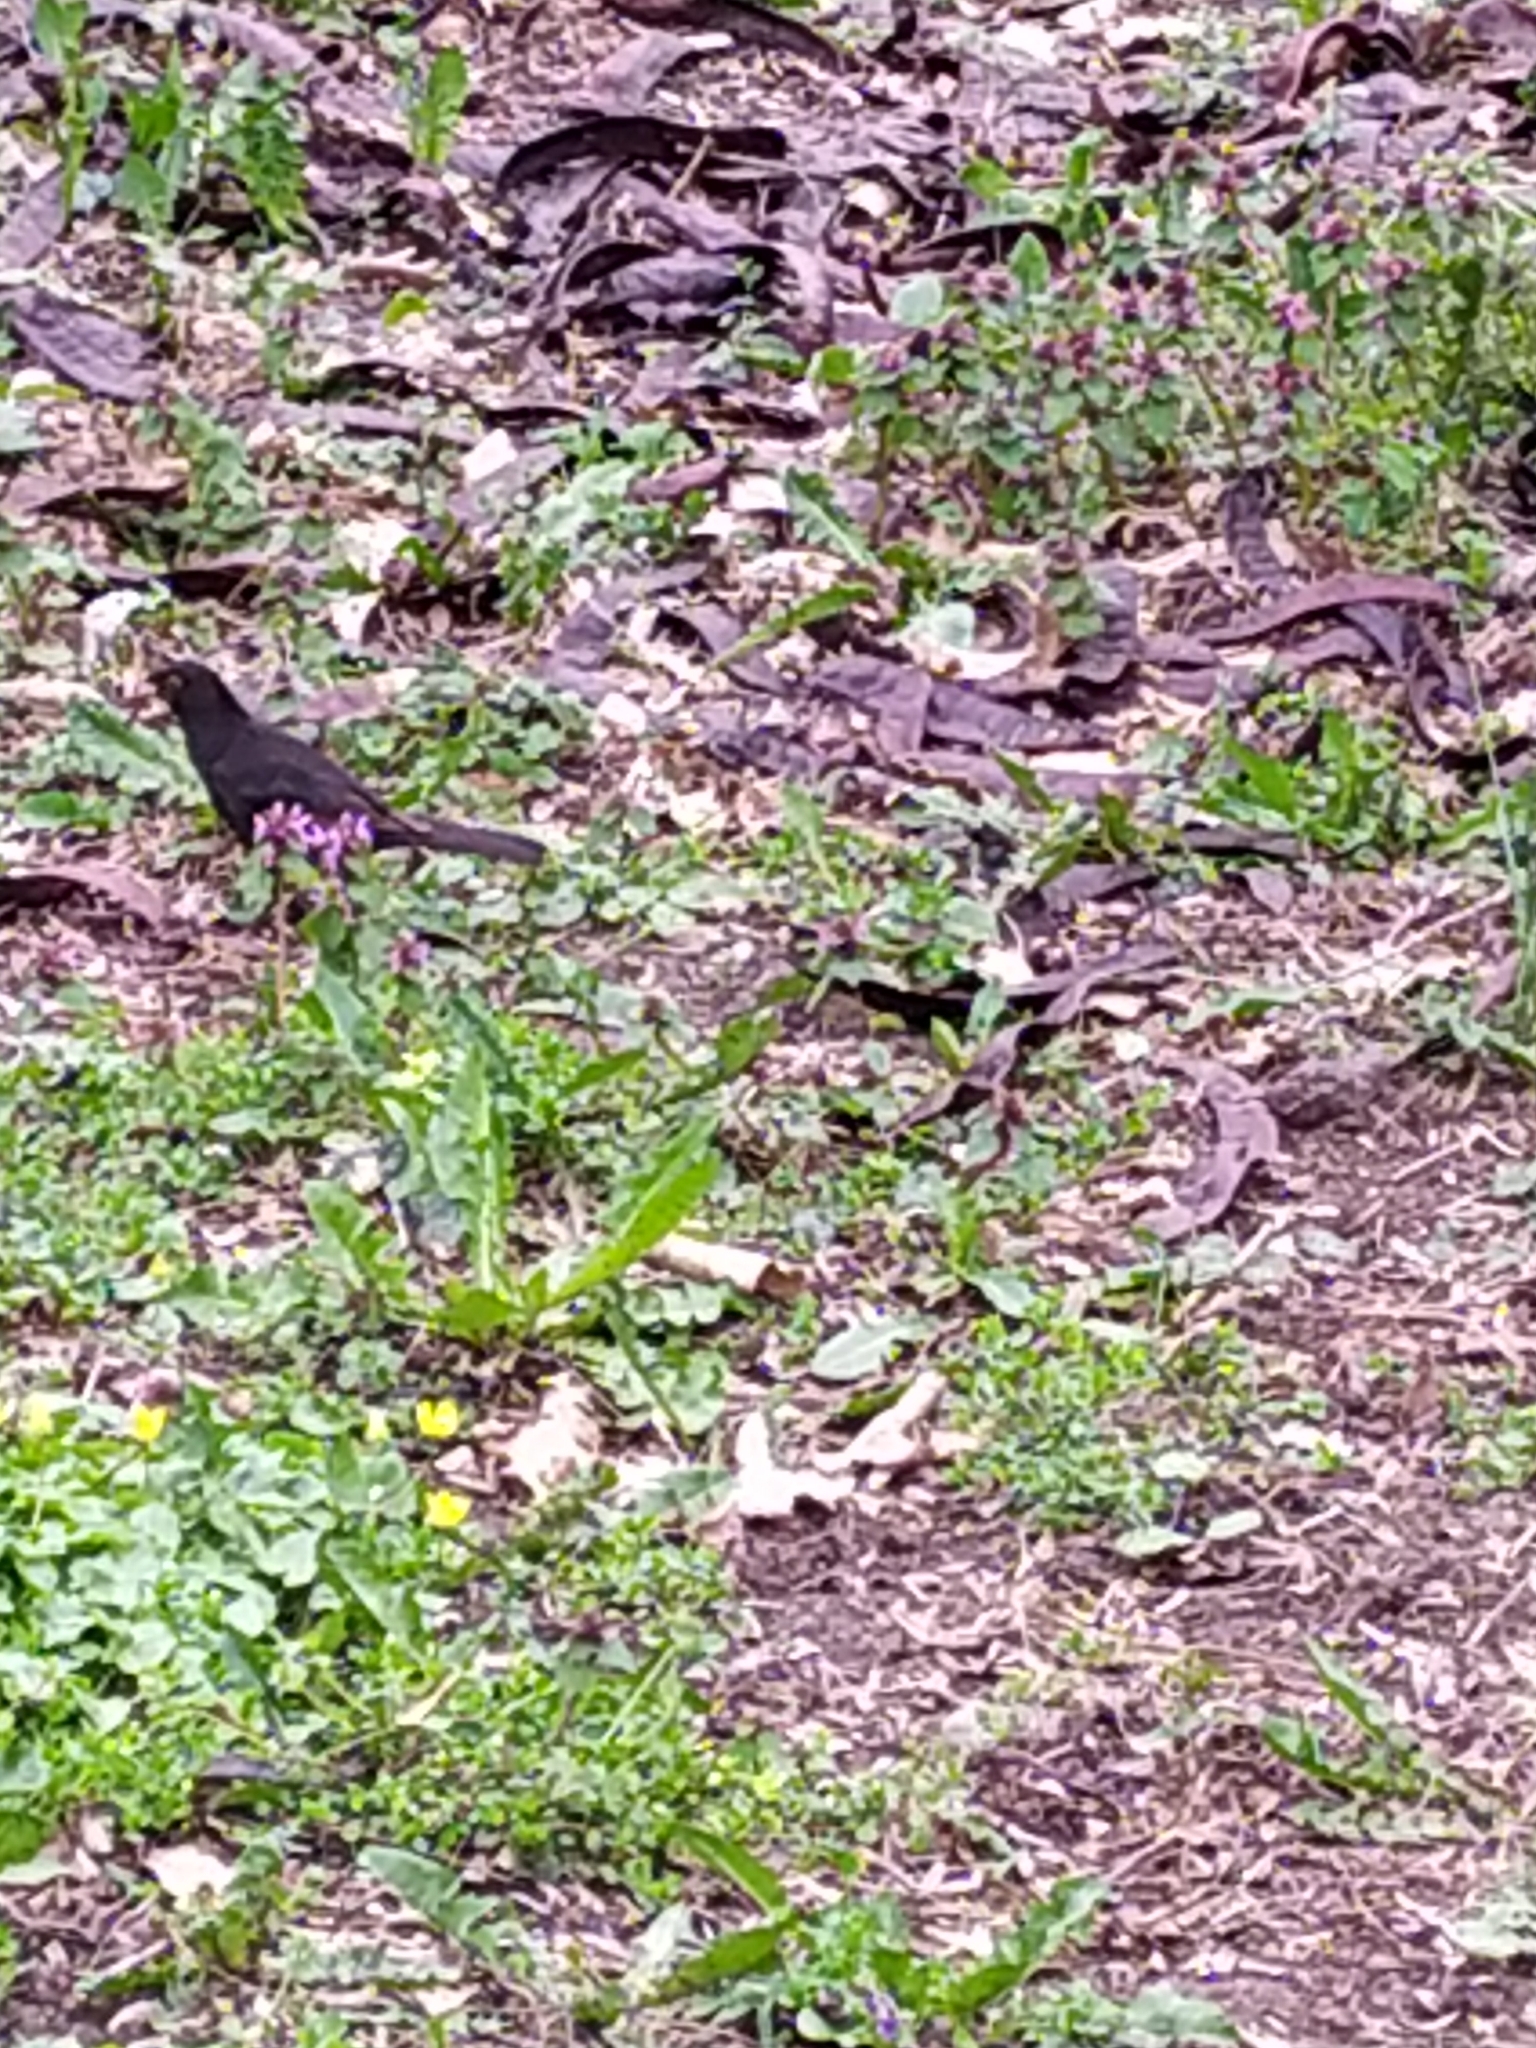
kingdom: Animalia
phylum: Chordata
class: Aves
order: Passeriformes
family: Turdidae
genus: Turdus
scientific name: Turdus merula
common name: Common blackbird
